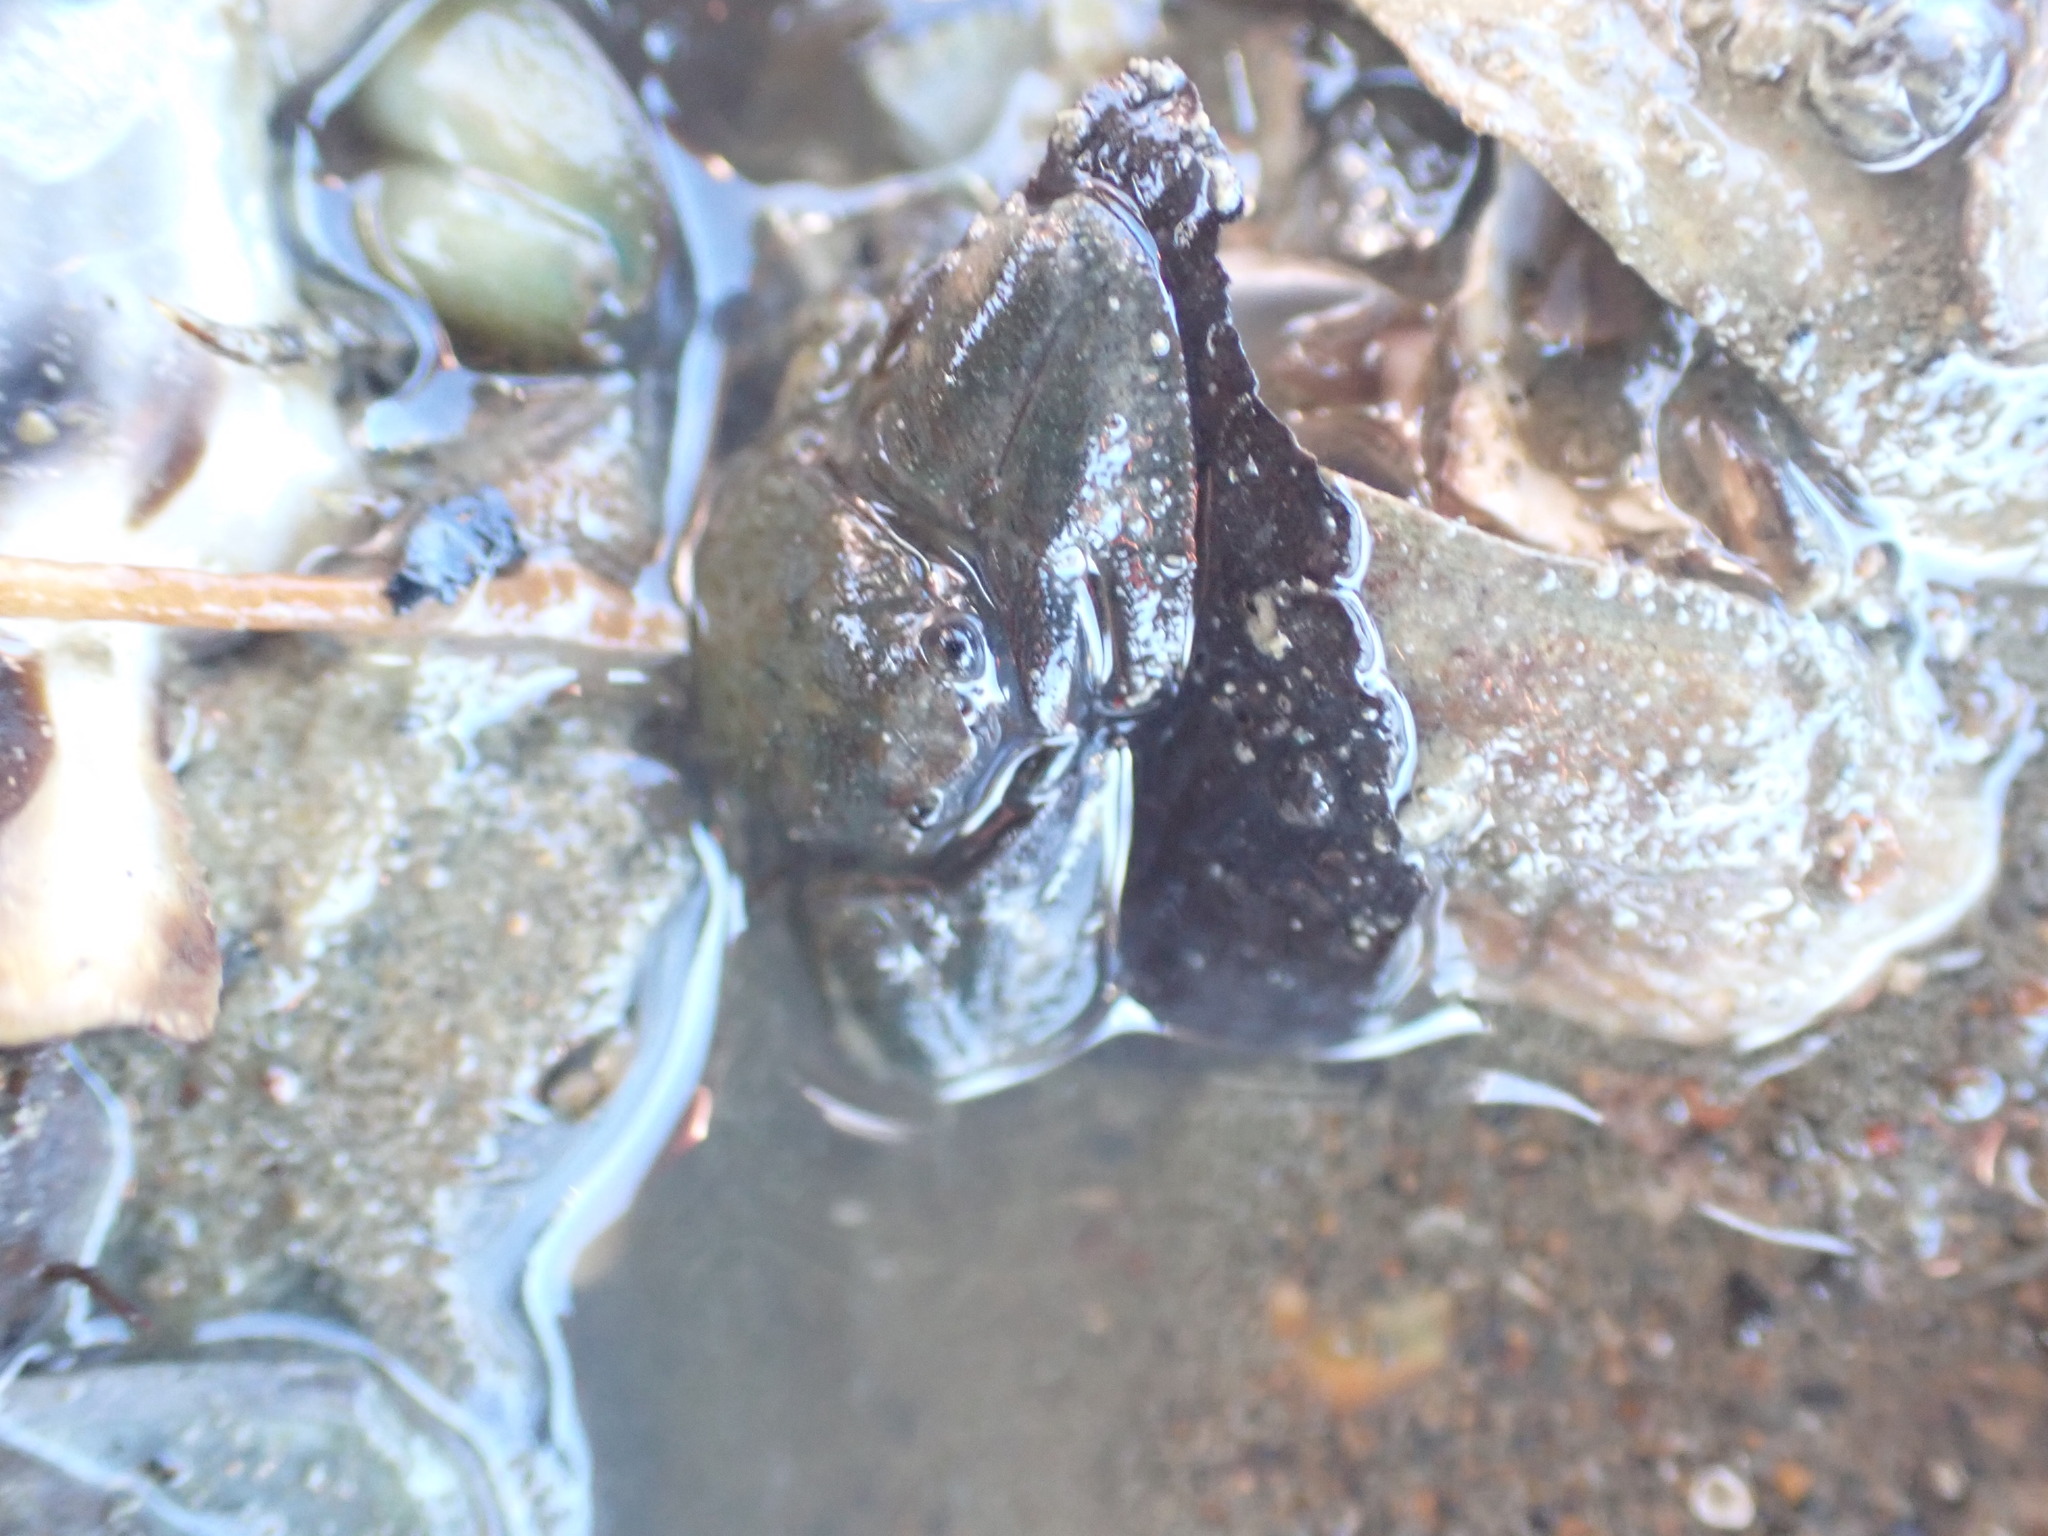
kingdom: Animalia
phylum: Arthropoda
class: Malacostraca
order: Decapoda
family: Porcellanidae
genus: Petrolisthes
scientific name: Petrolisthes elongatus
